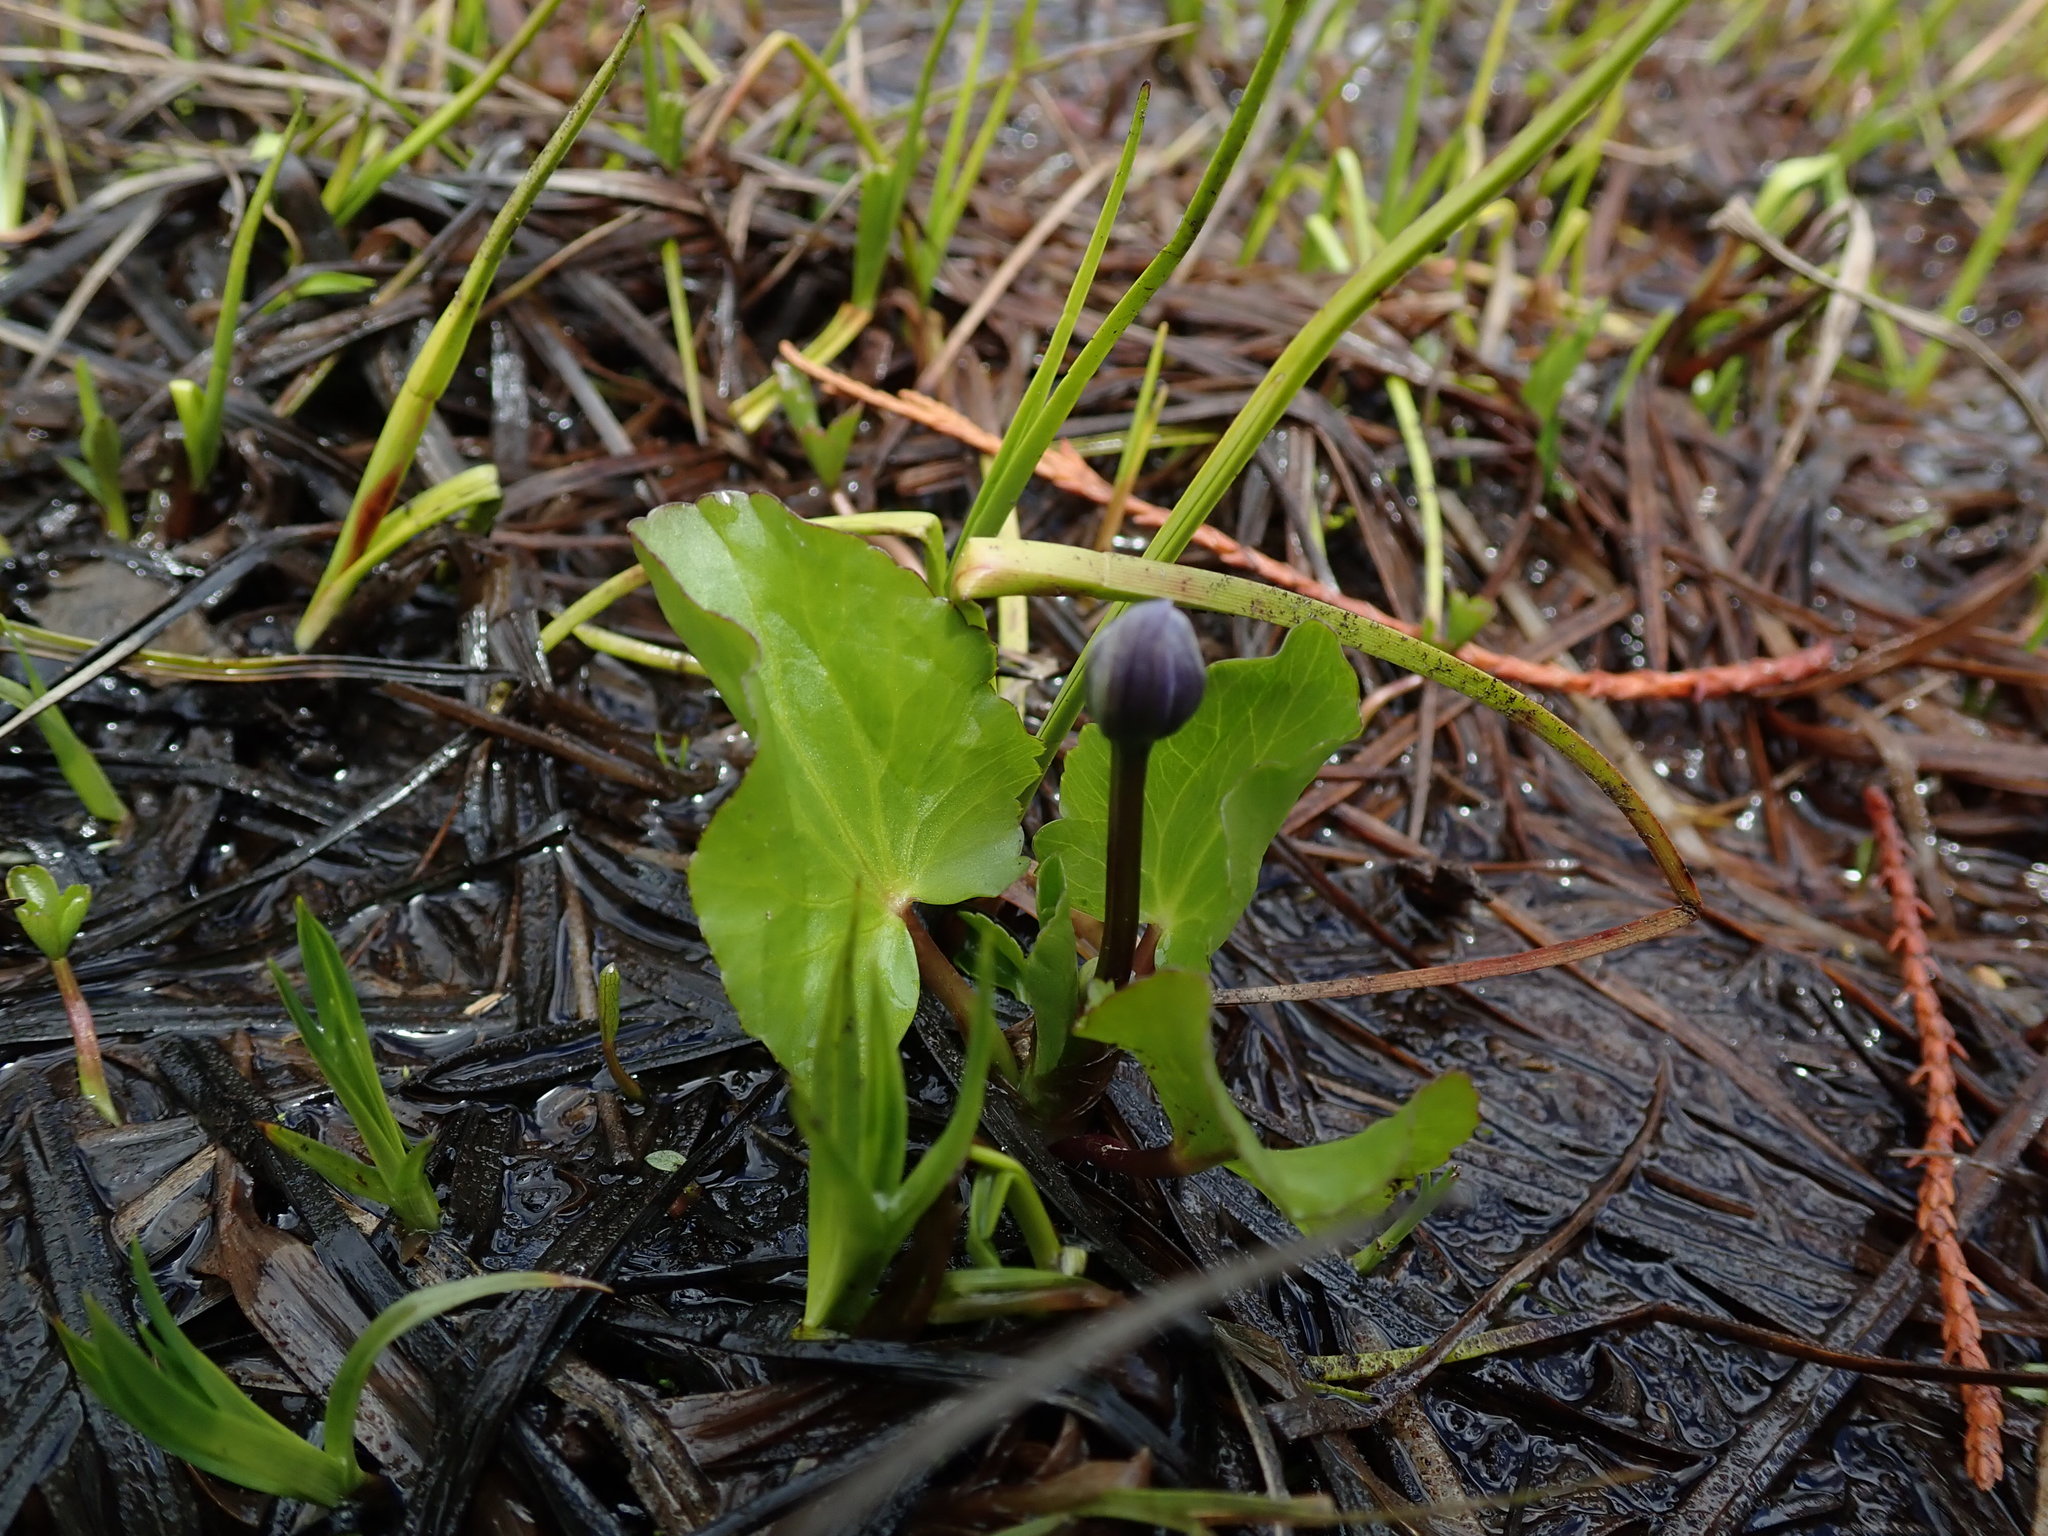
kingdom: Plantae
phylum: Tracheophyta
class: Magnoliopsida
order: Ranunculales
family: Ranunculaceae
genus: Caltha
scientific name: Caltha leptosepala
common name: Elkslip
